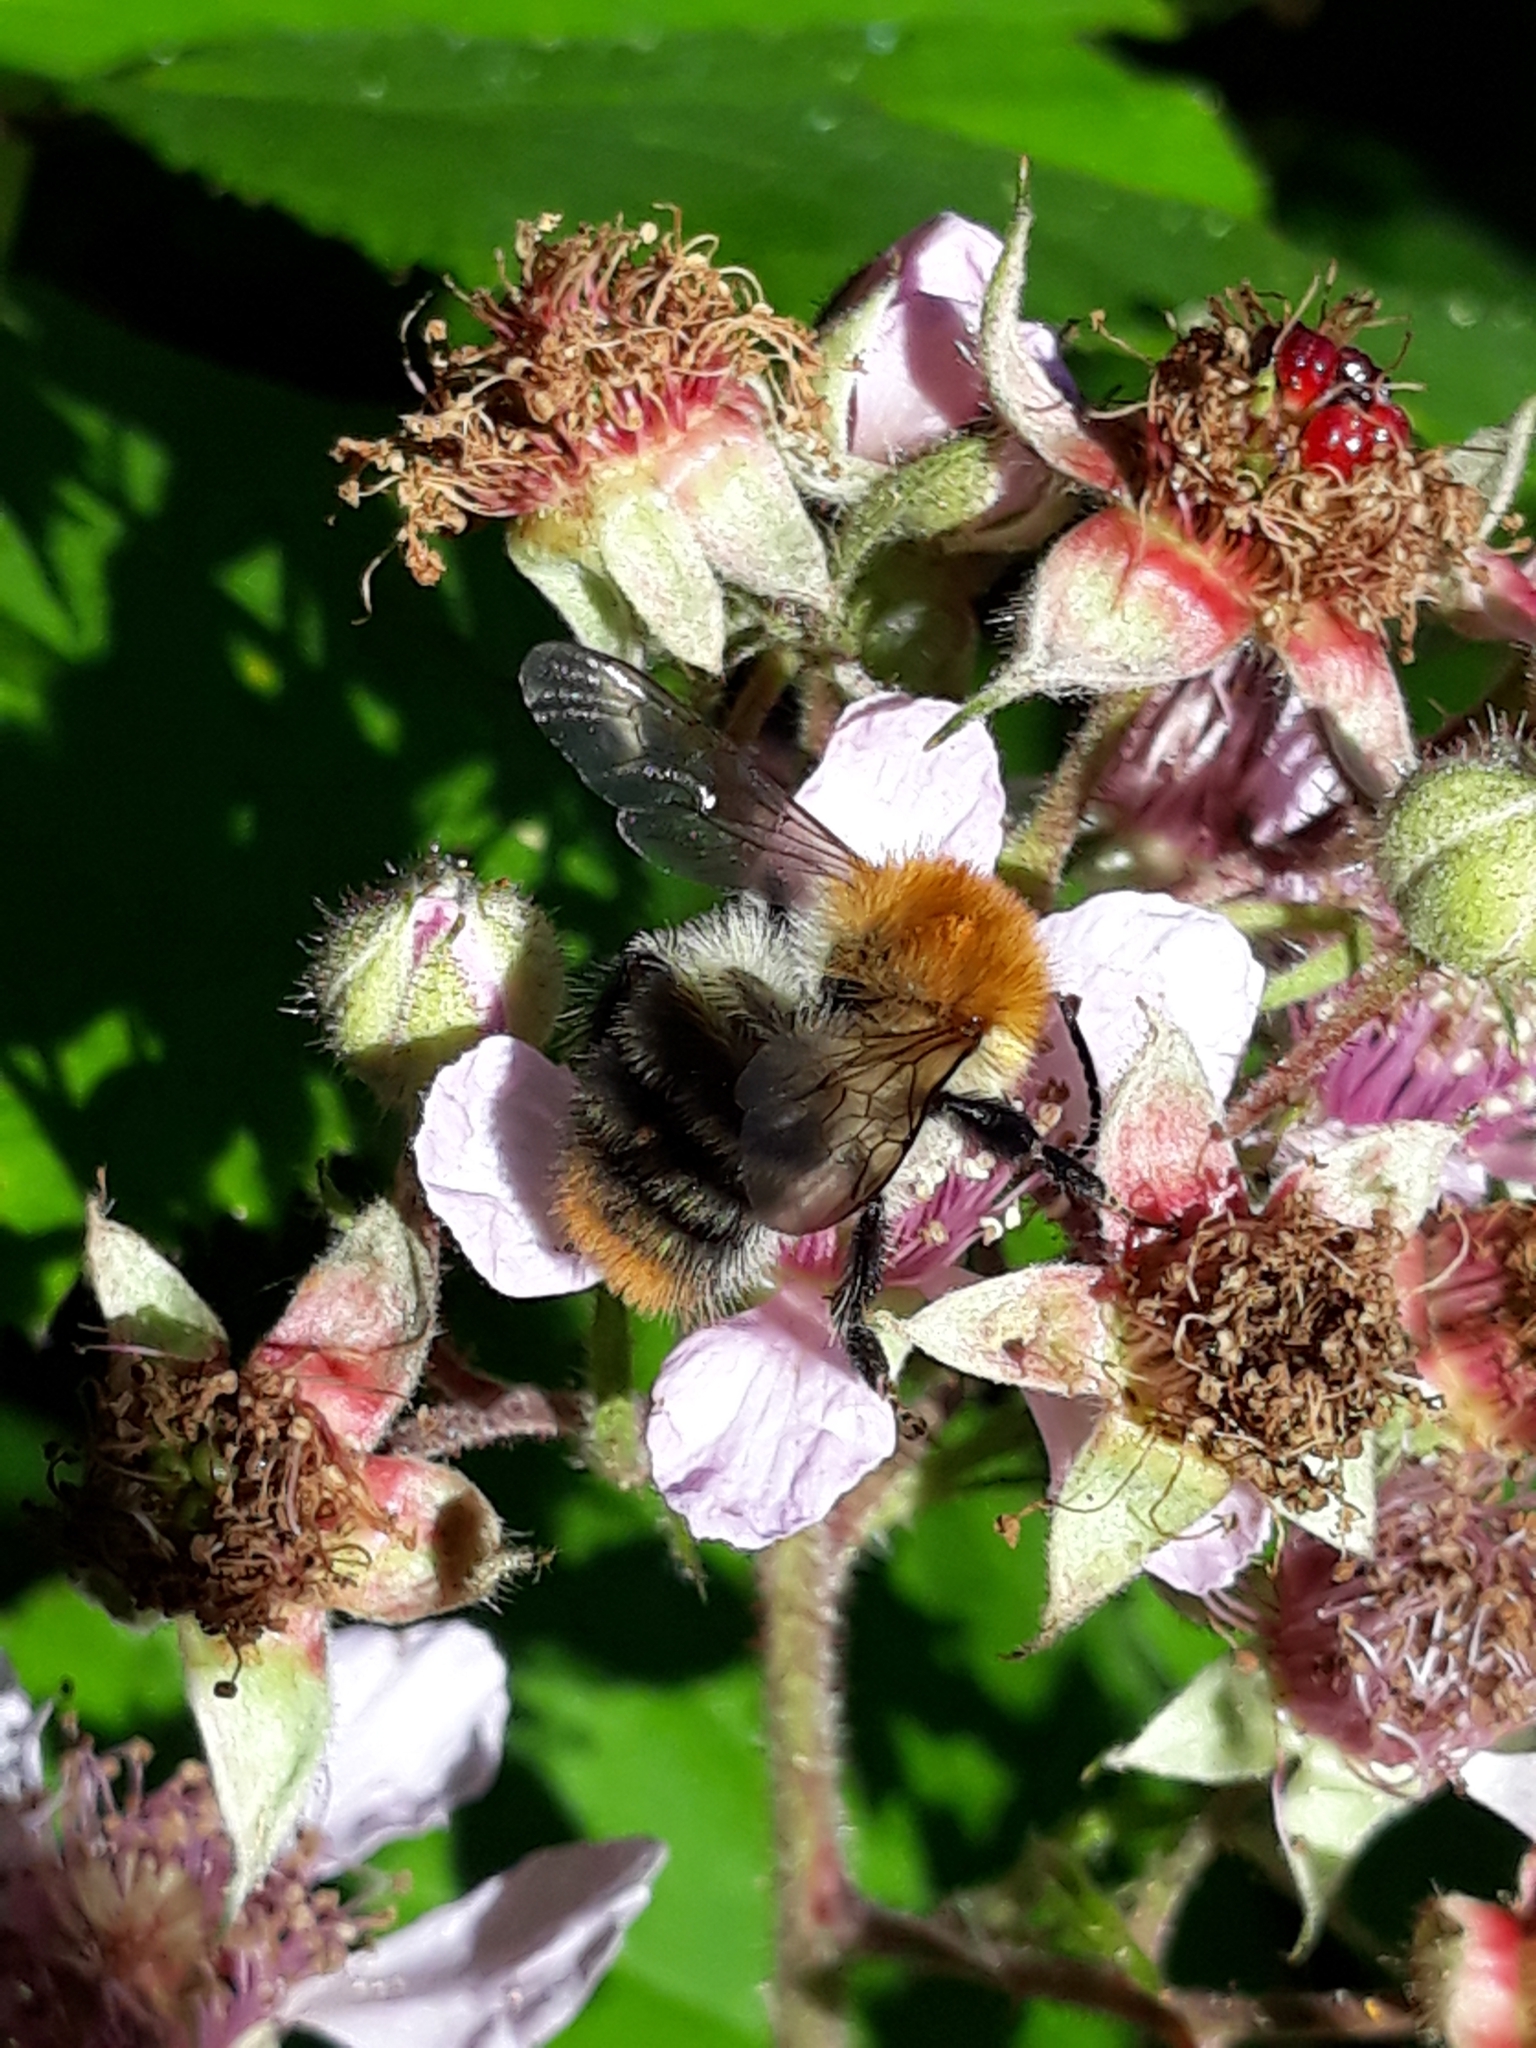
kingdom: Animalia
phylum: Arthropoda
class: Insecta
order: Hymenoptera
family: Apidae
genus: Bombus
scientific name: Bombus pascuorum
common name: Common carder bee
